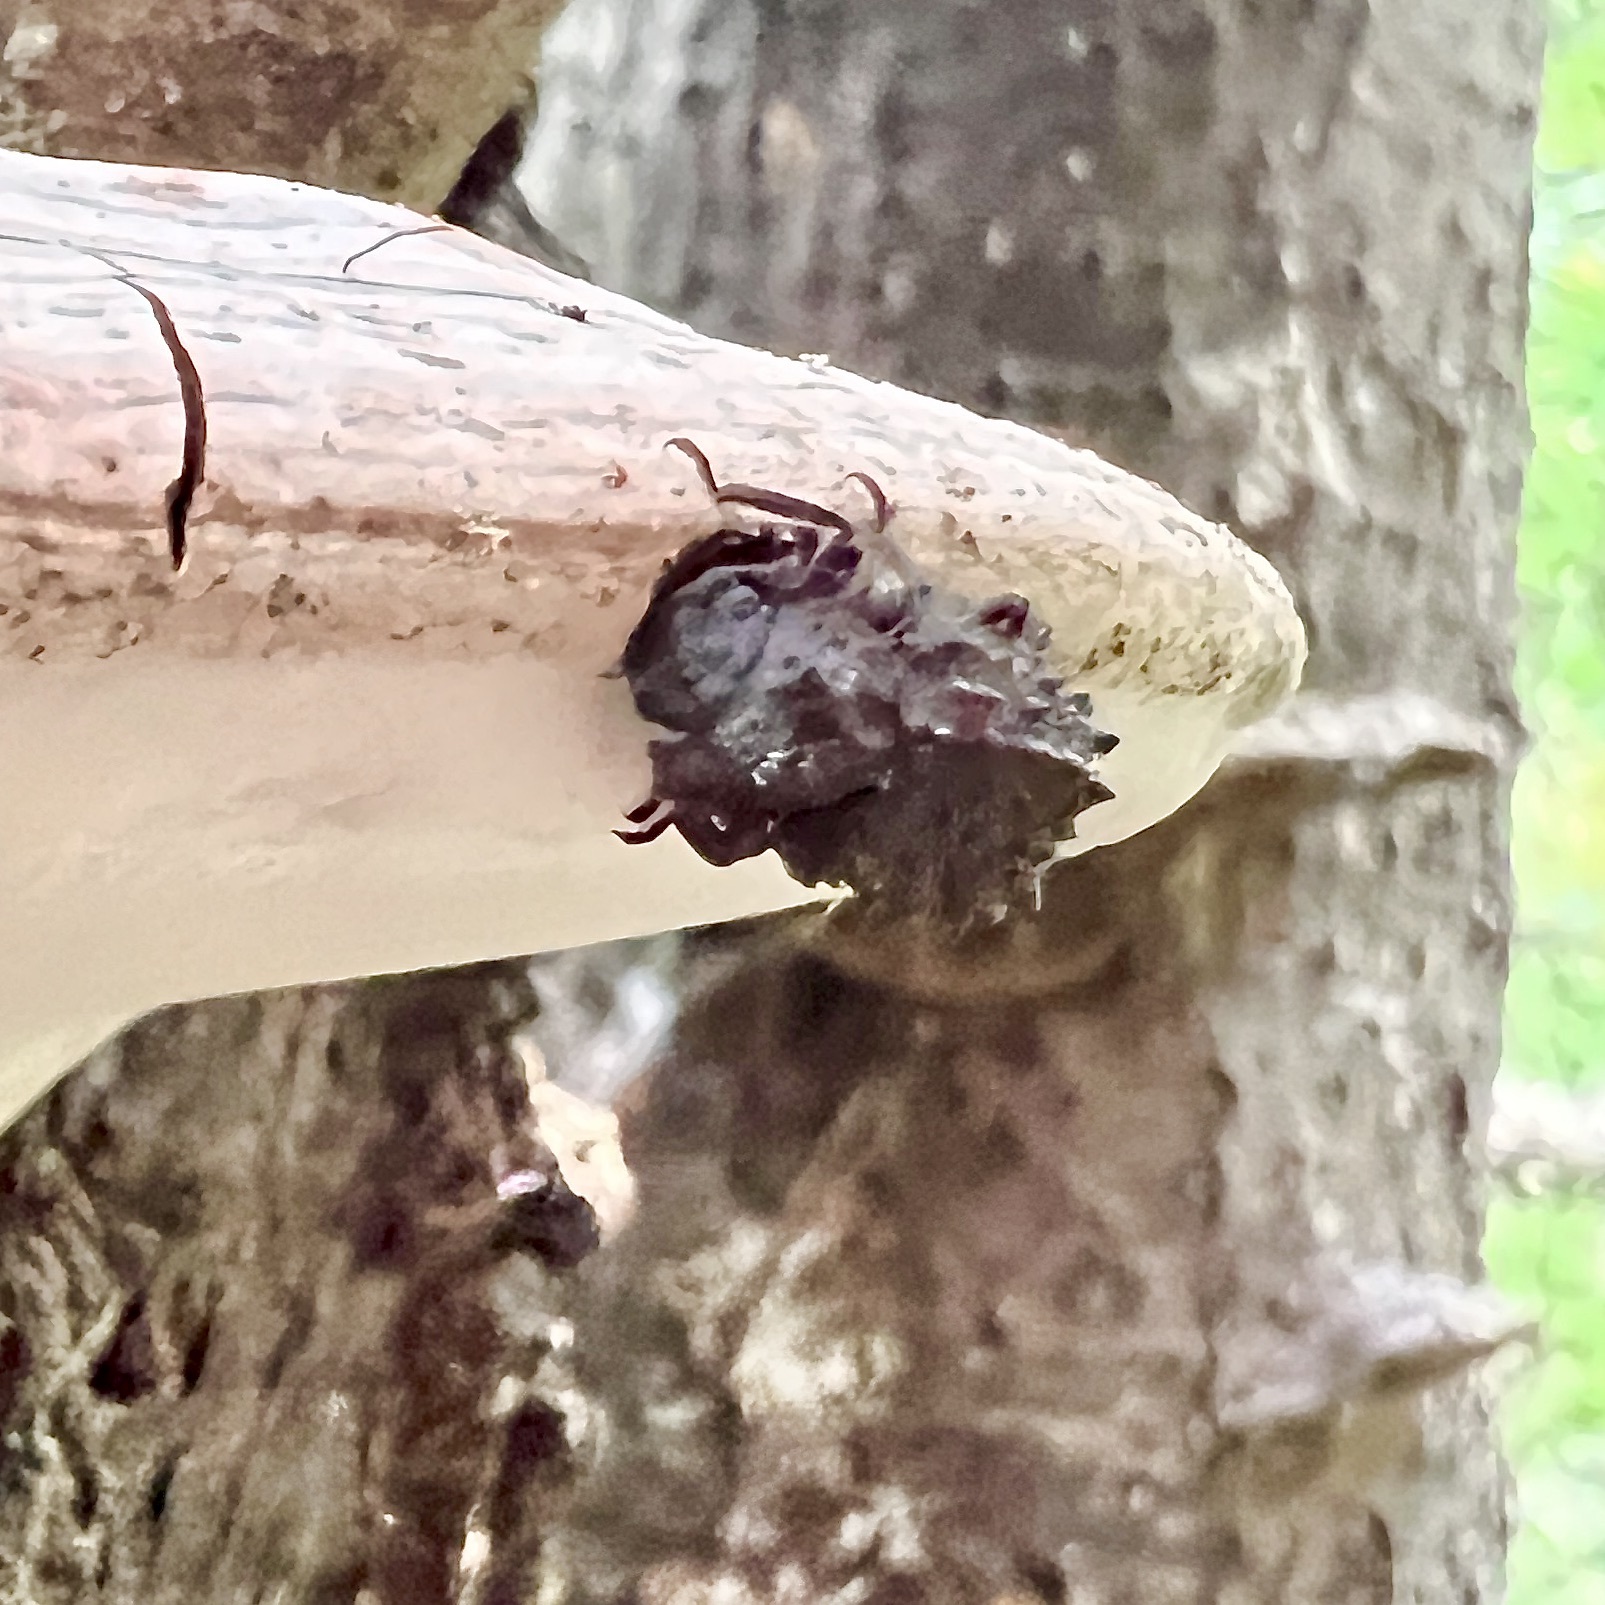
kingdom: Animalia
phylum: Arthropoda
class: Insecta
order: Coleoptera
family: Tenebrionidae
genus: Gnatocerus
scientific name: Gnatocerus cornutus
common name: Broad-horned flour beetle
